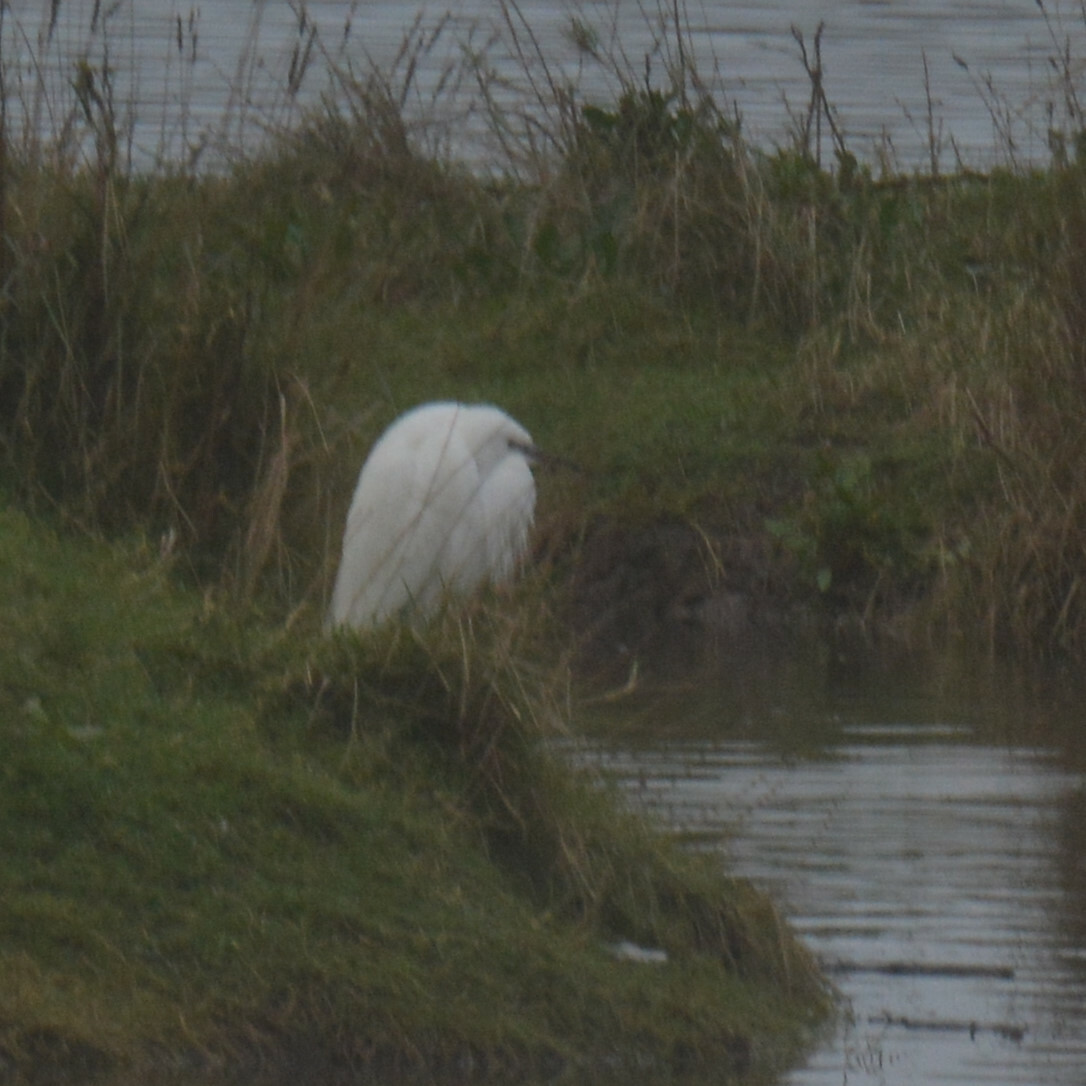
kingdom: Animalia
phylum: Chordata
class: Aves
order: Pelecaniformes
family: Ardeidae
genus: Egretta
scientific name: Egretta garzetta
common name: Little egret
